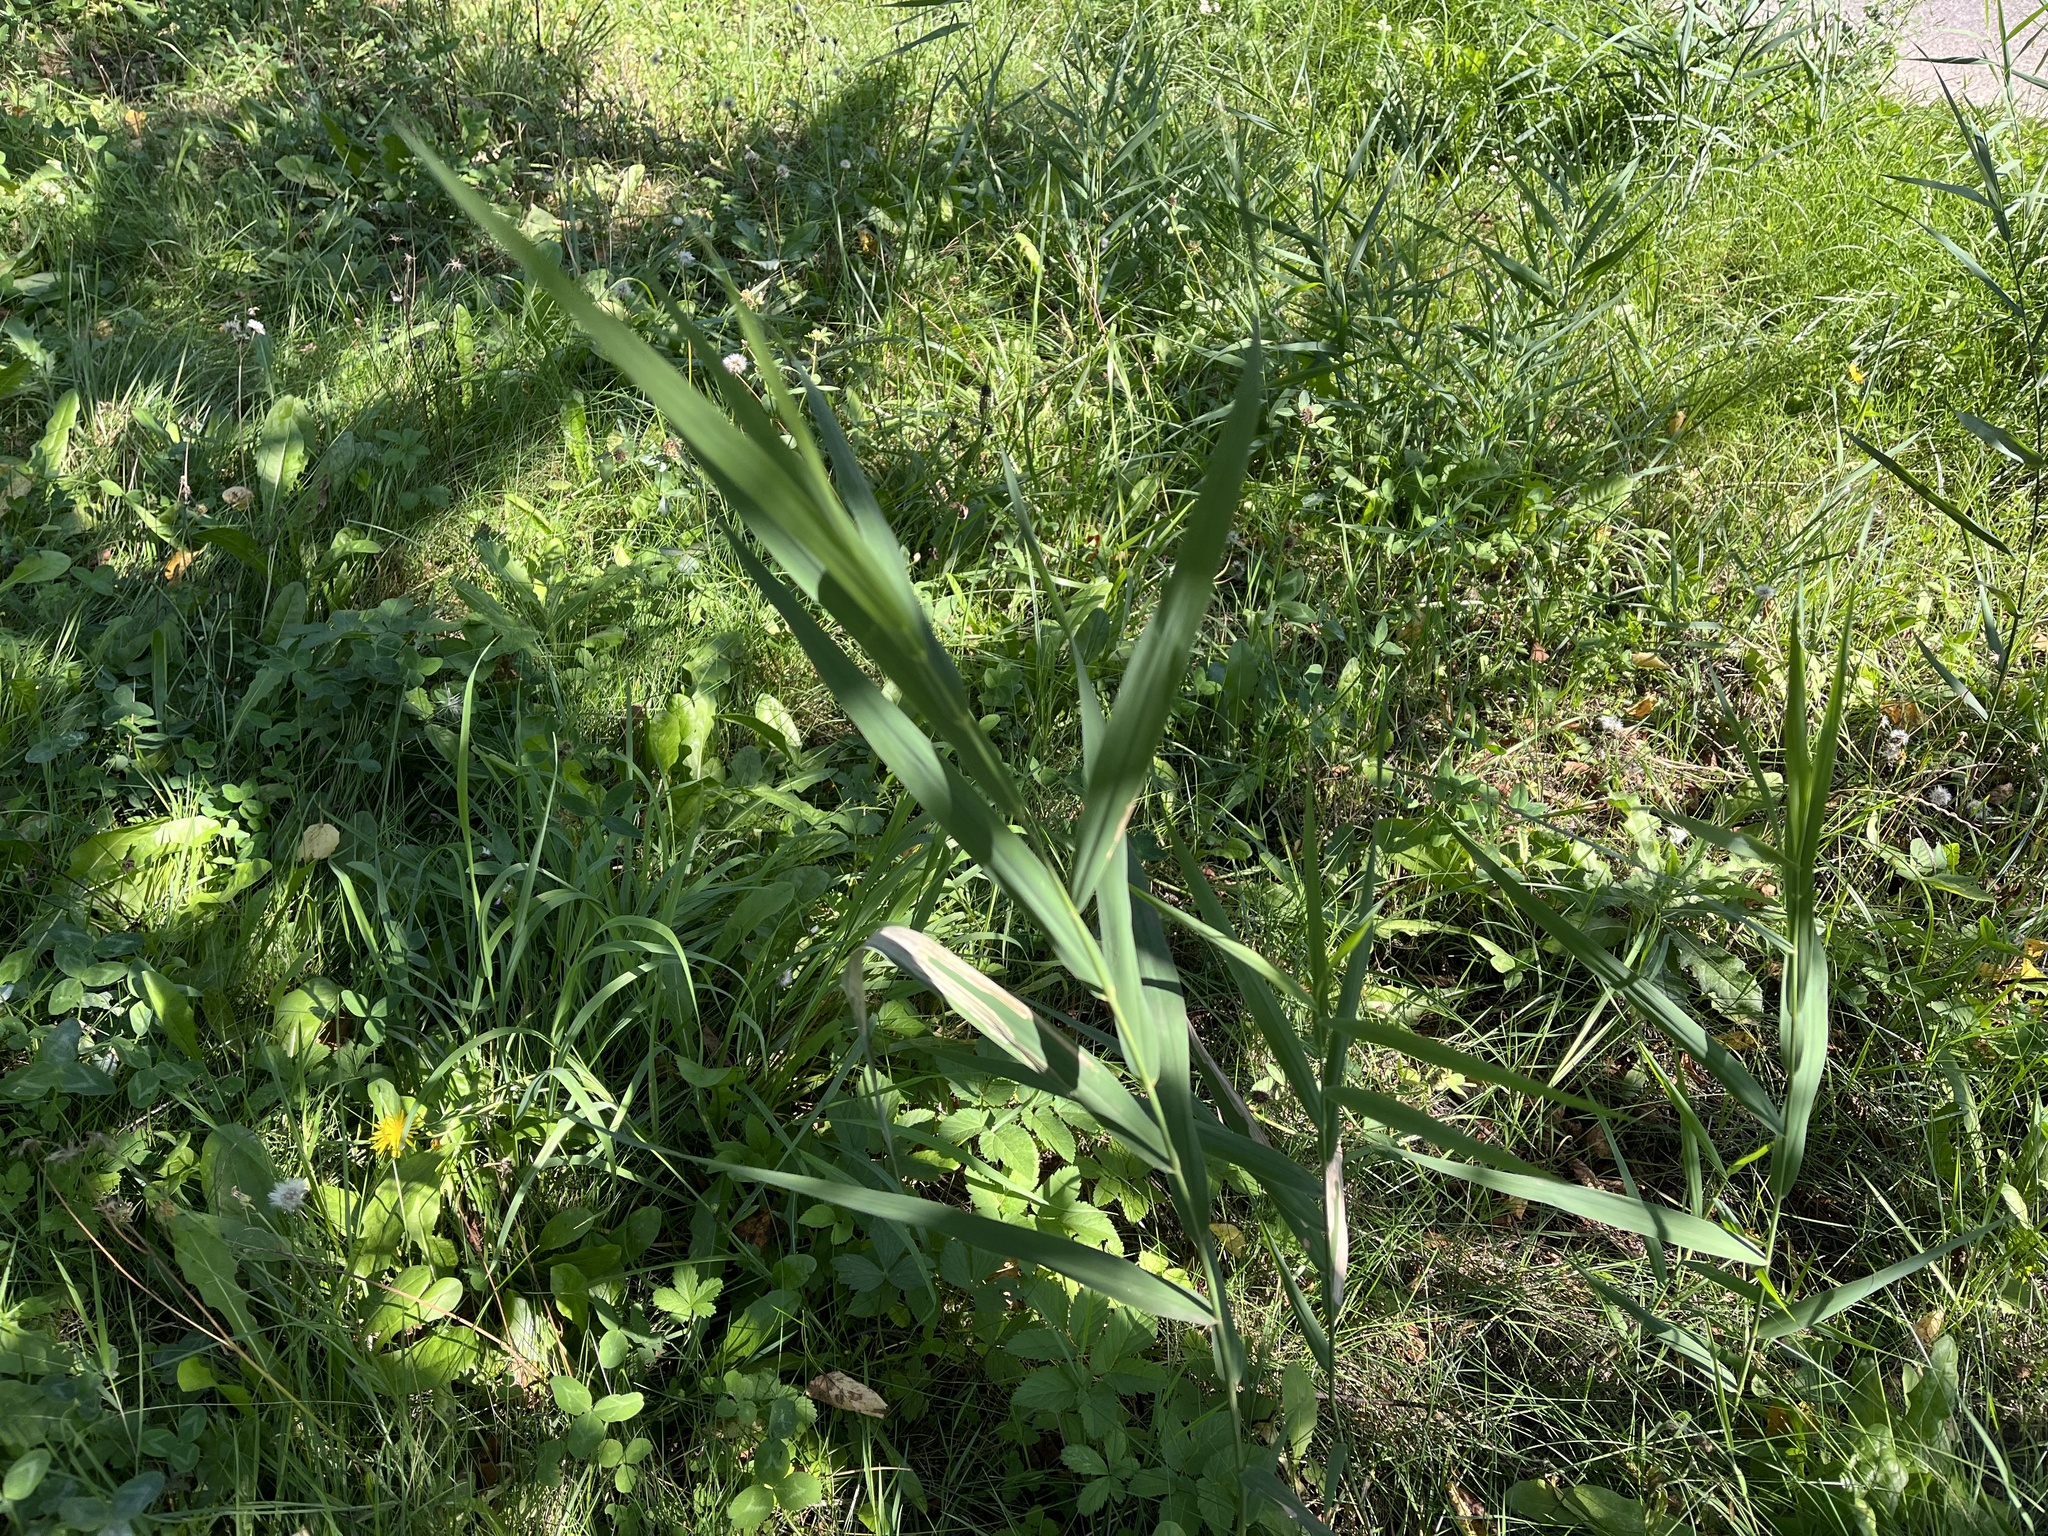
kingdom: Plantae
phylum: Tracheophyta
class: Liliopsida
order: Poales
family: Poaceae
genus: Phragmites
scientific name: Phragmites australis
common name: Common reed
